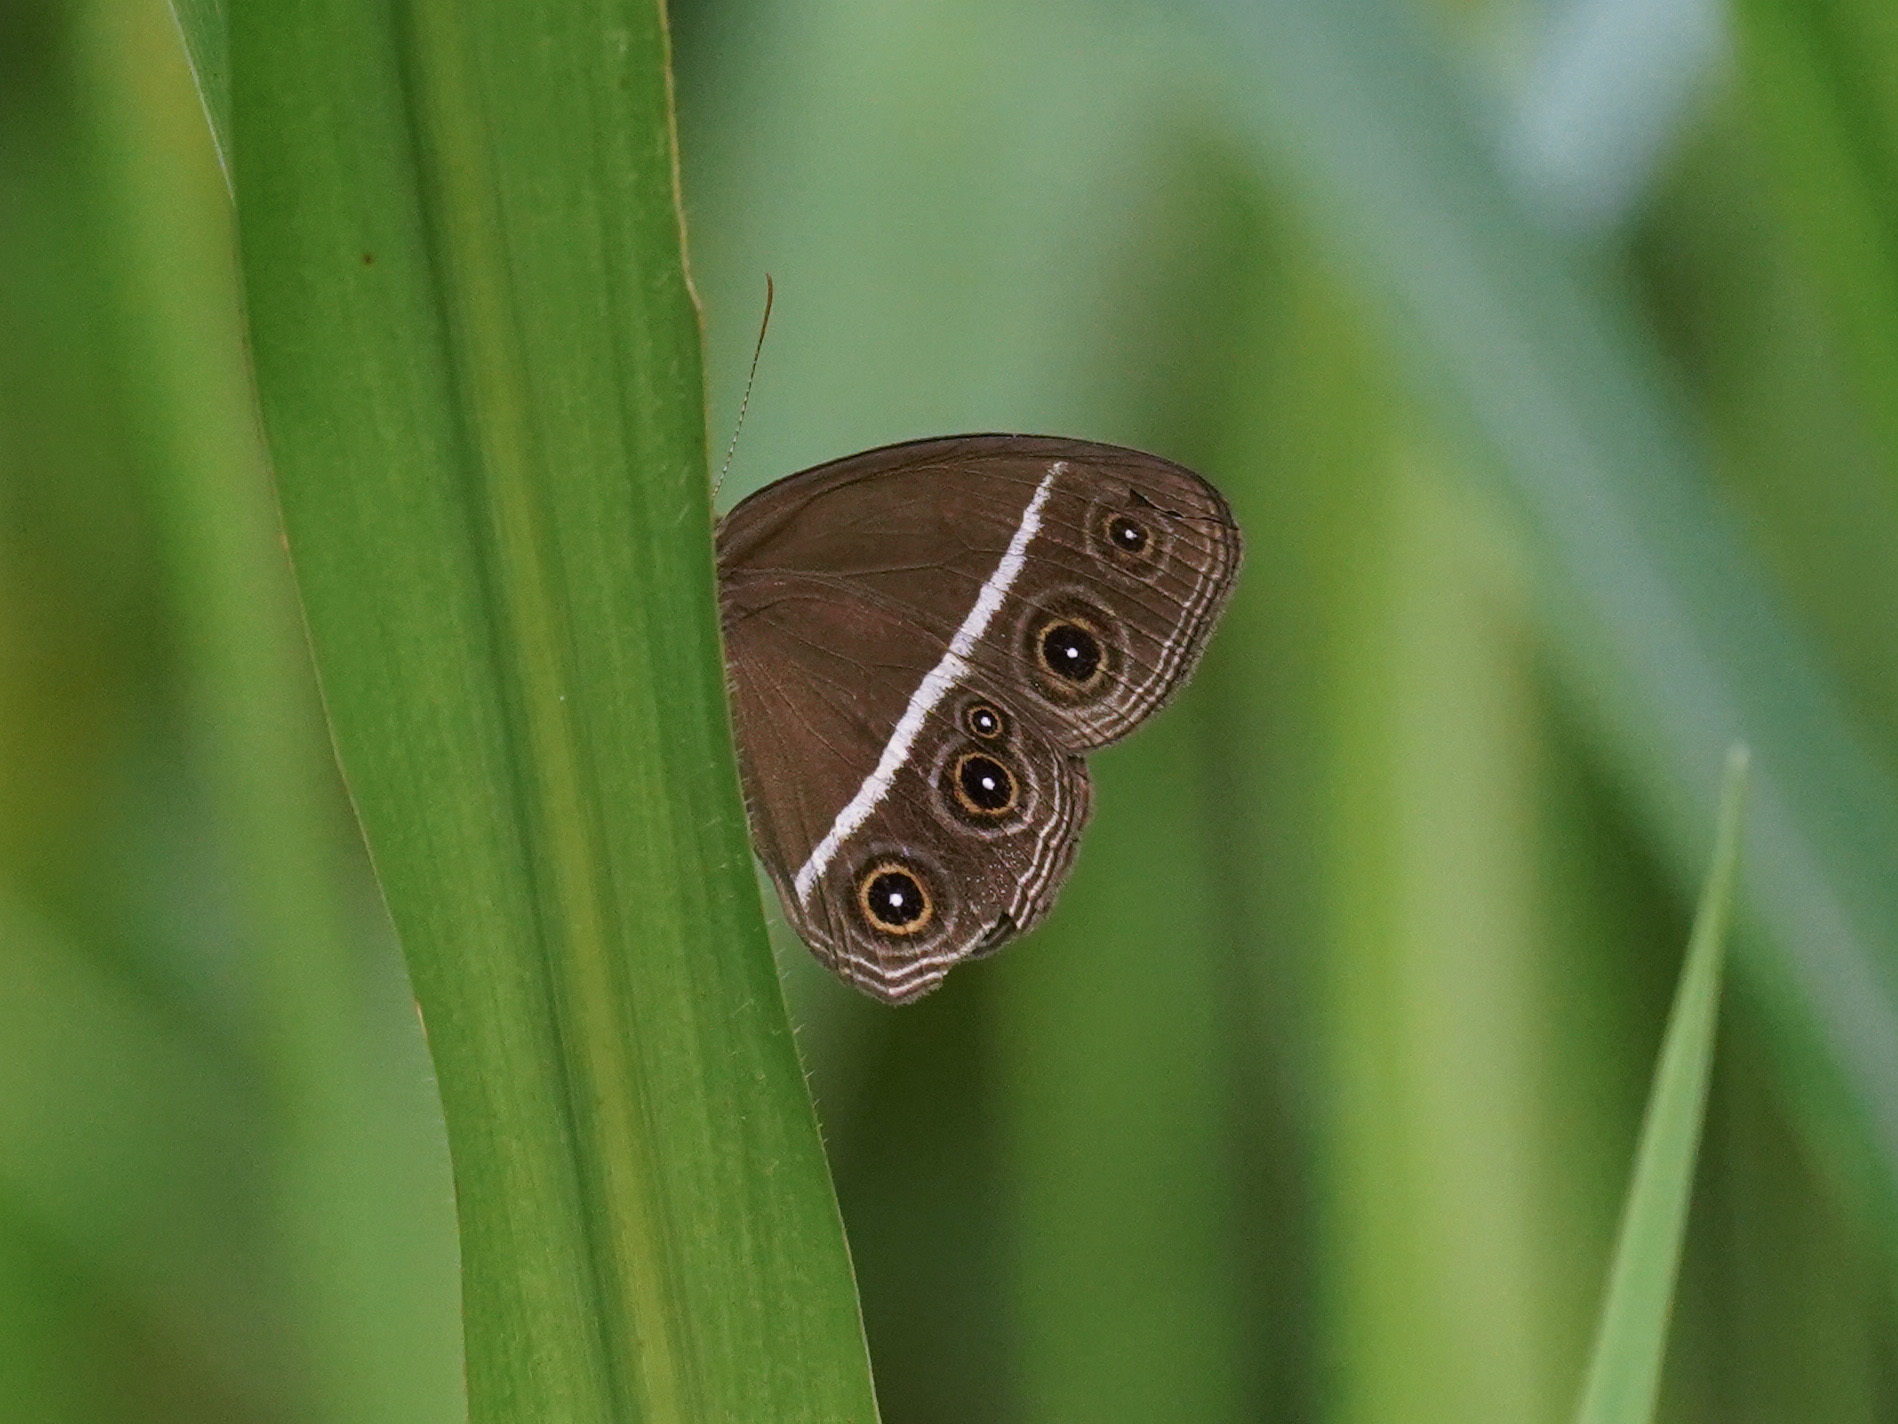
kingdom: Animalia
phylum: Arthropoda
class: Insecta
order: Lepidoptera
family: Nymphalidae
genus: Orsotriaena
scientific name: Orsotriaena medus
